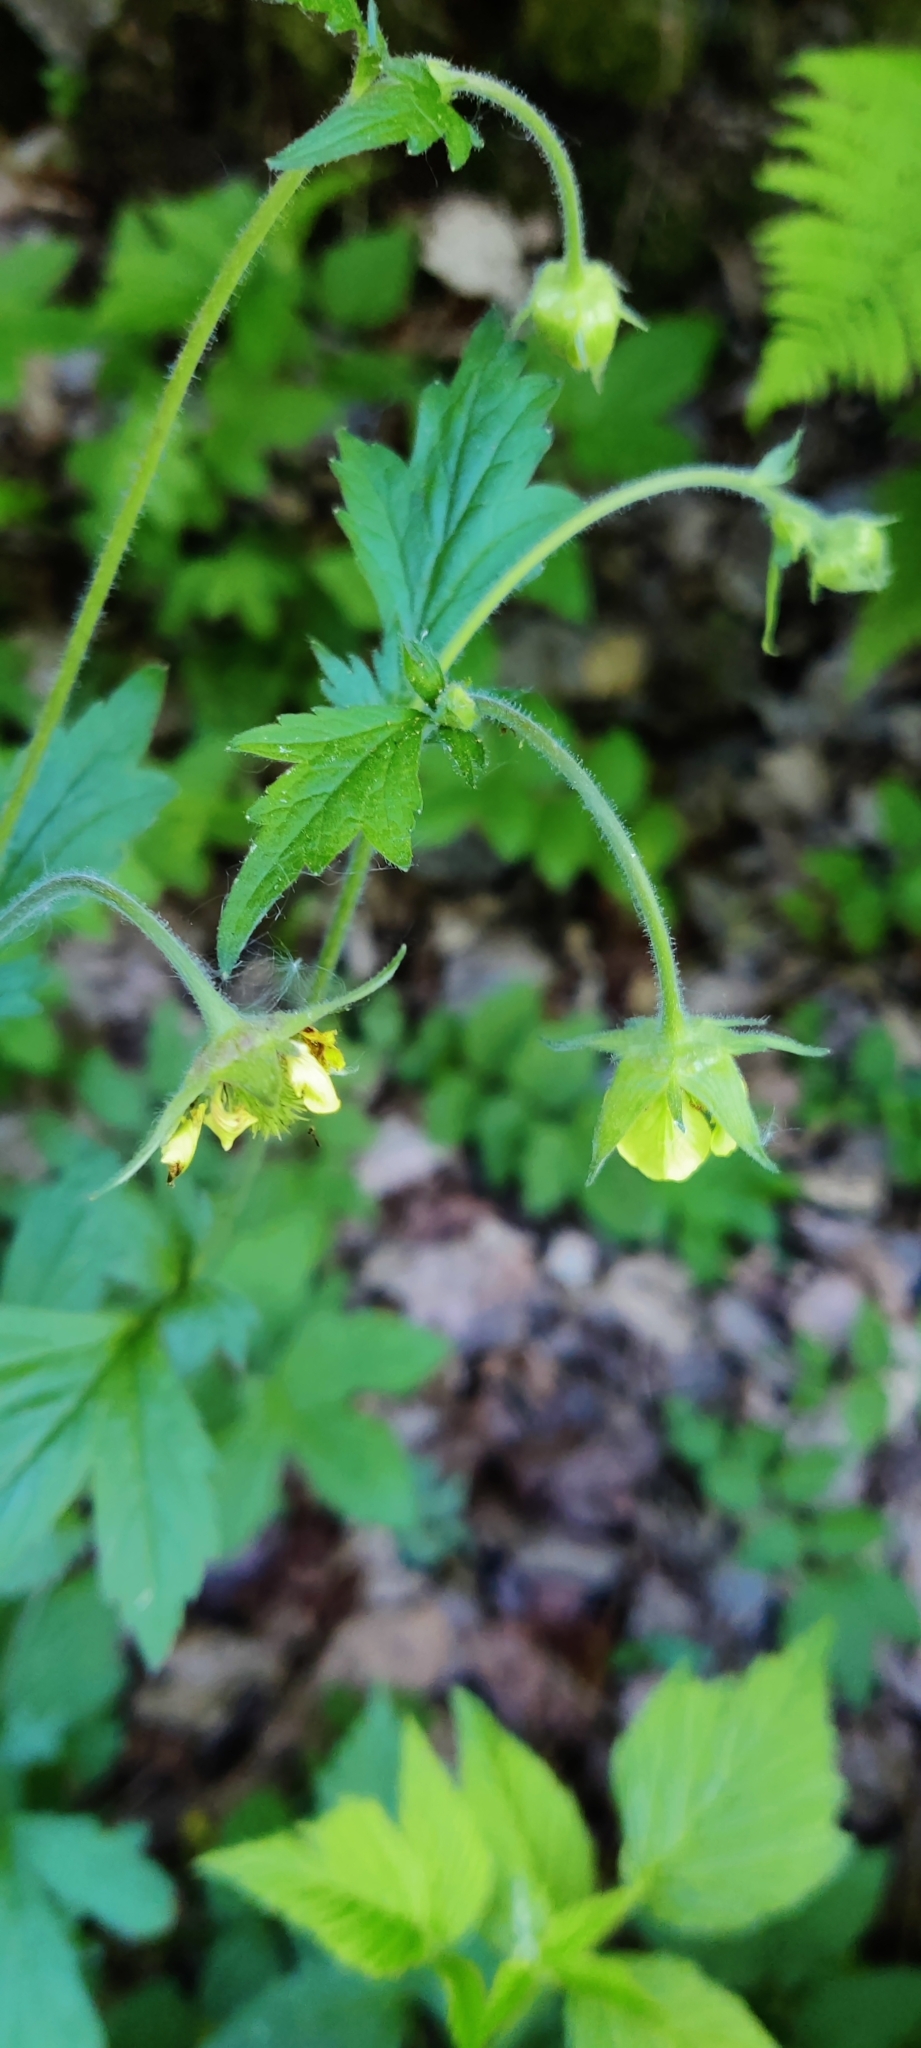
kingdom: Plantae
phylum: Tracheophyta
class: Magnoliopsida
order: Rosales
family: Rosaceae
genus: Geum
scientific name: Geum urbanum
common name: Wood avens
